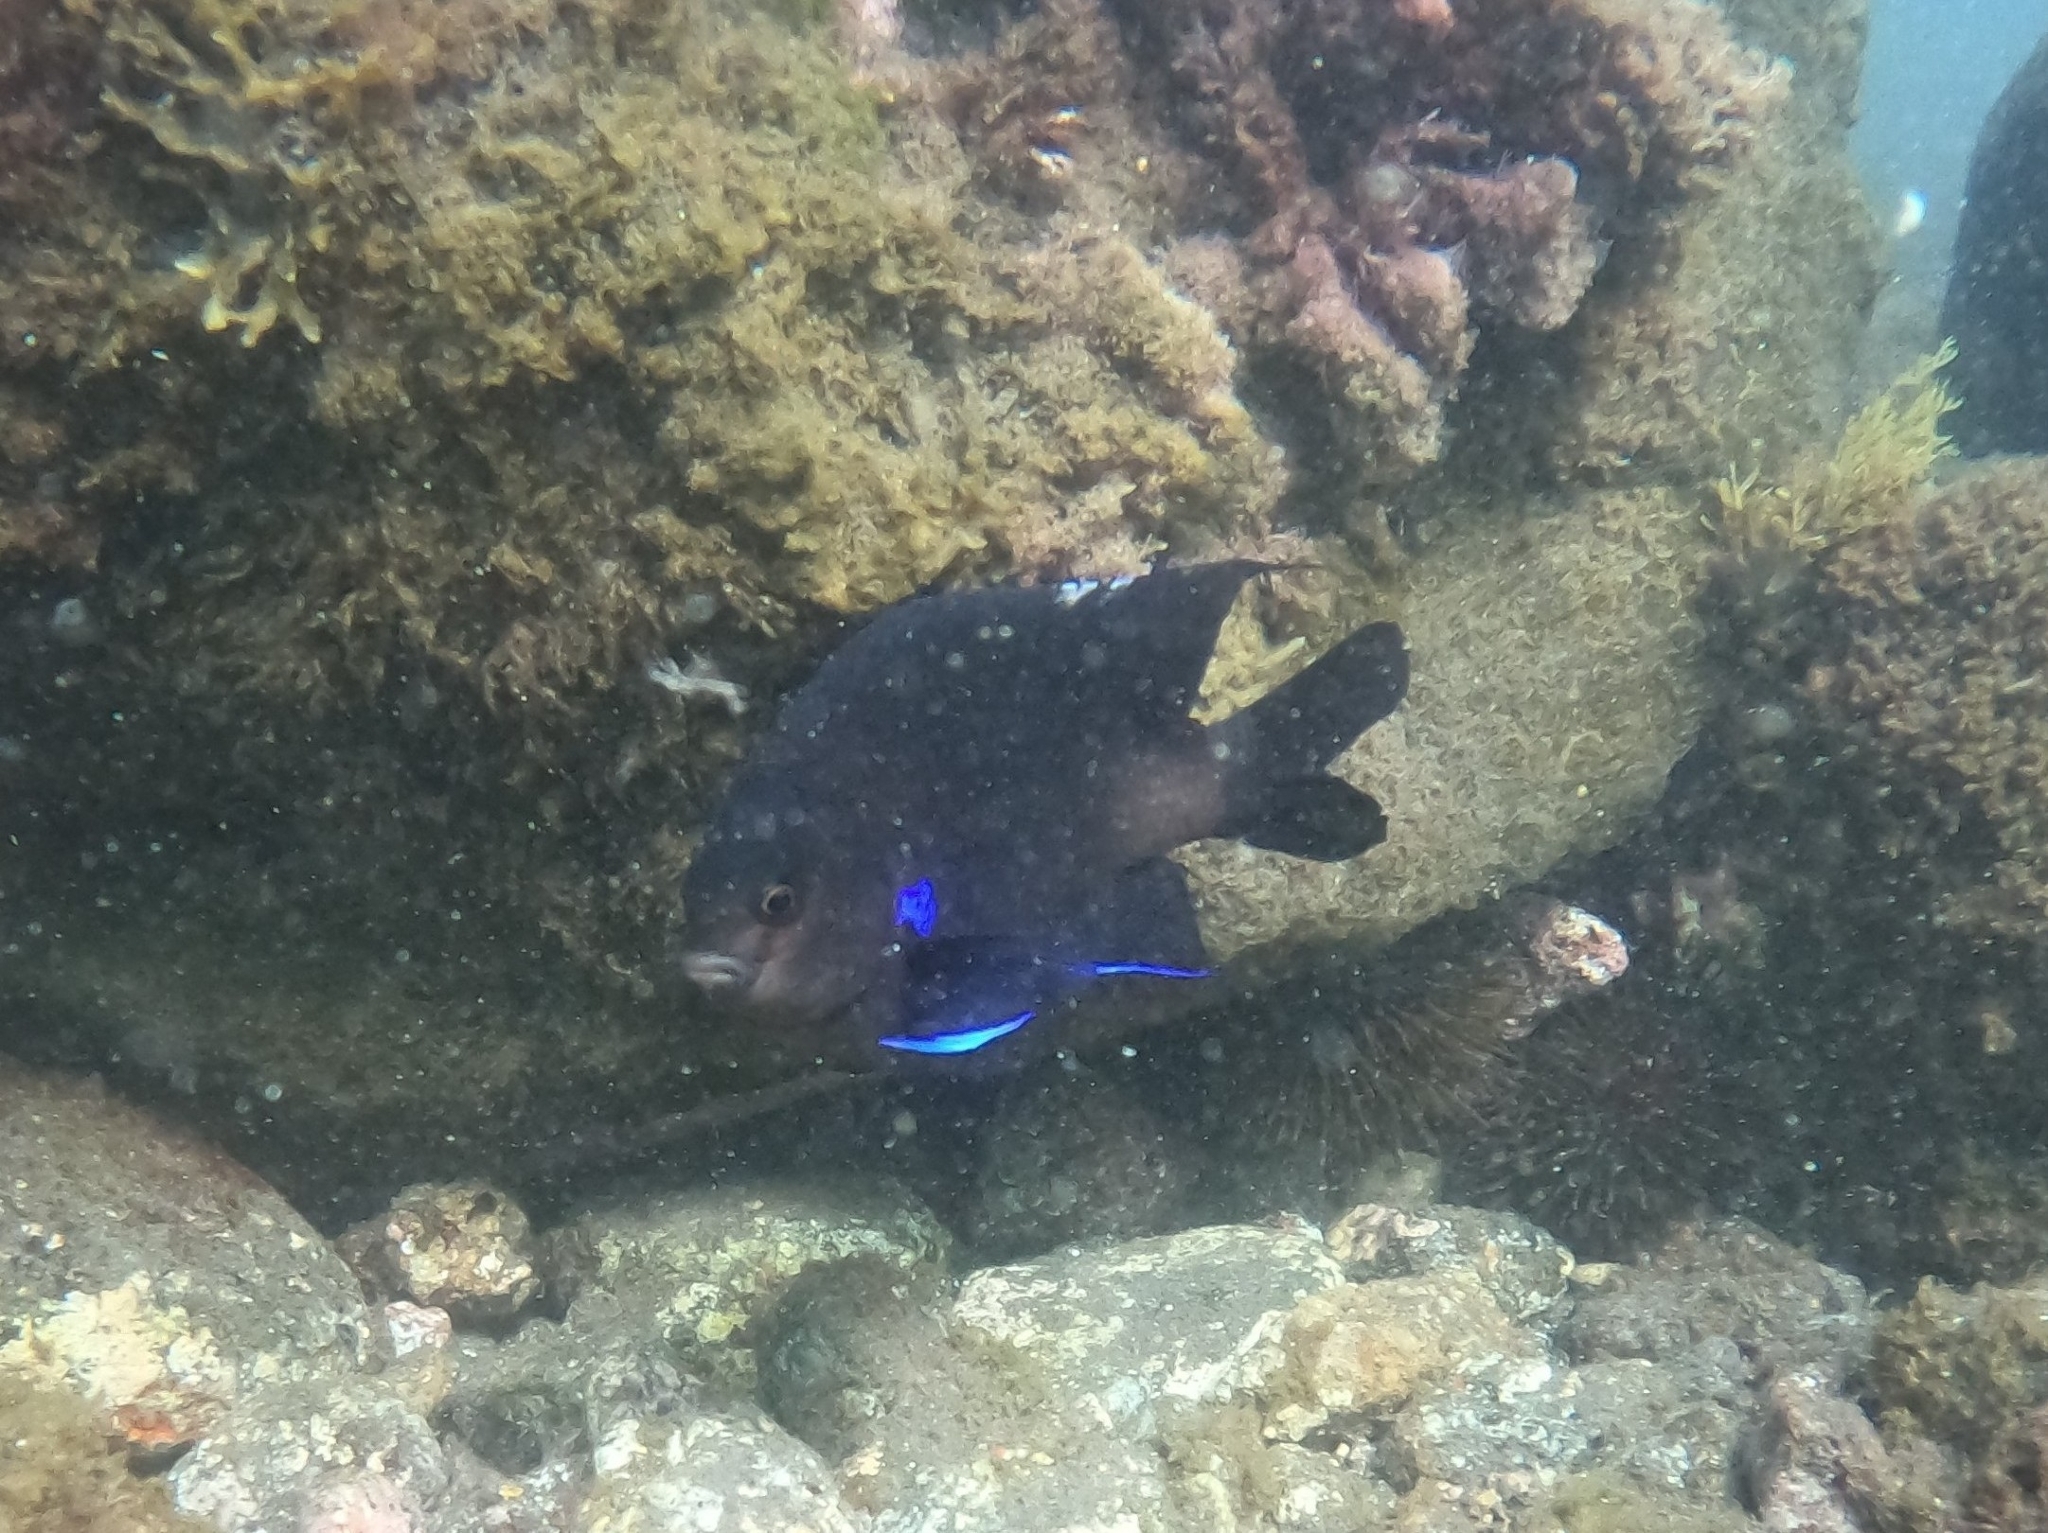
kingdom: Animalia
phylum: Chordata
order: Perciformes
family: Pomacentridae
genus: Similiparma
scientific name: Similiparma lurida
